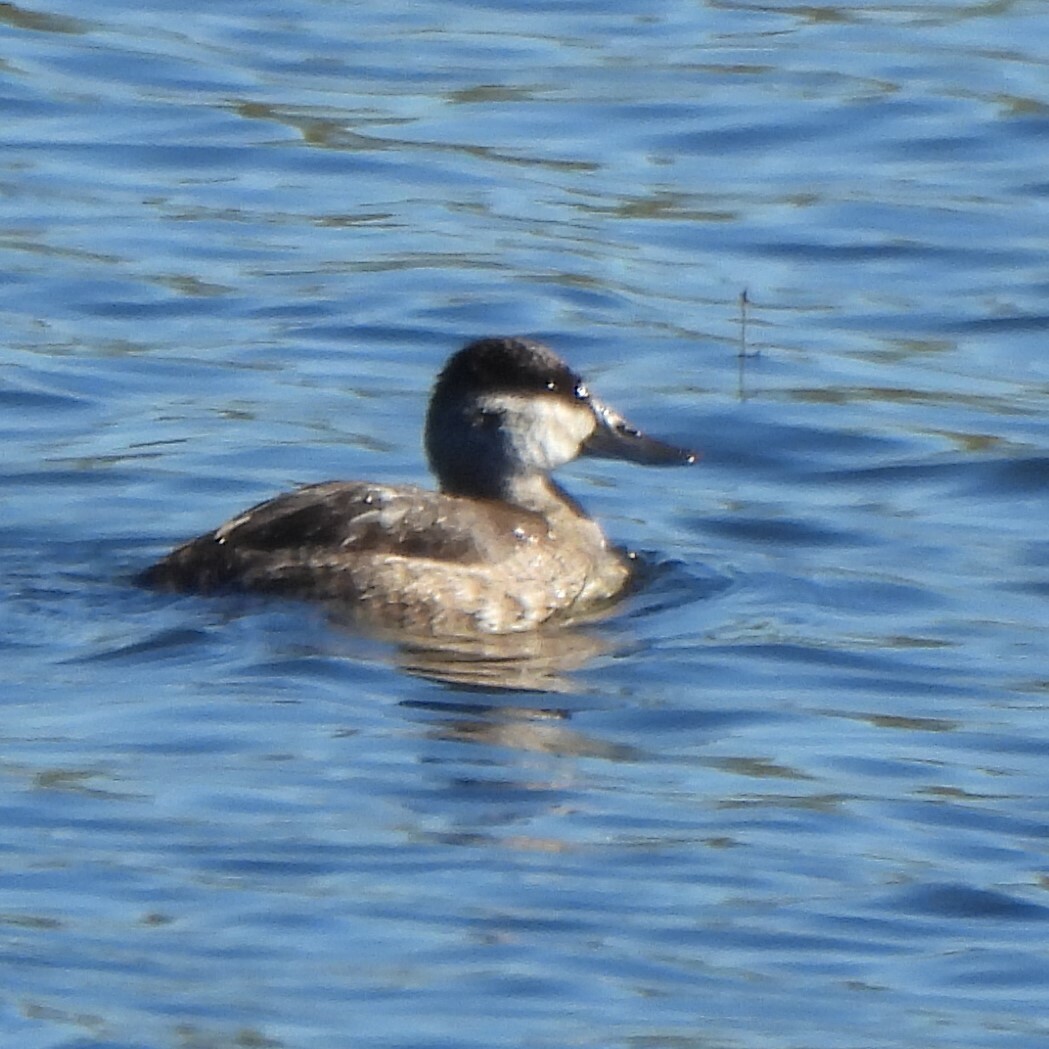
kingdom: Animalia
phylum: Chordata
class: Aves
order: Anseriformes
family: Anatidae
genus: Oxyura
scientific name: Oxyura jamaicensis
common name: Ruddy duck
